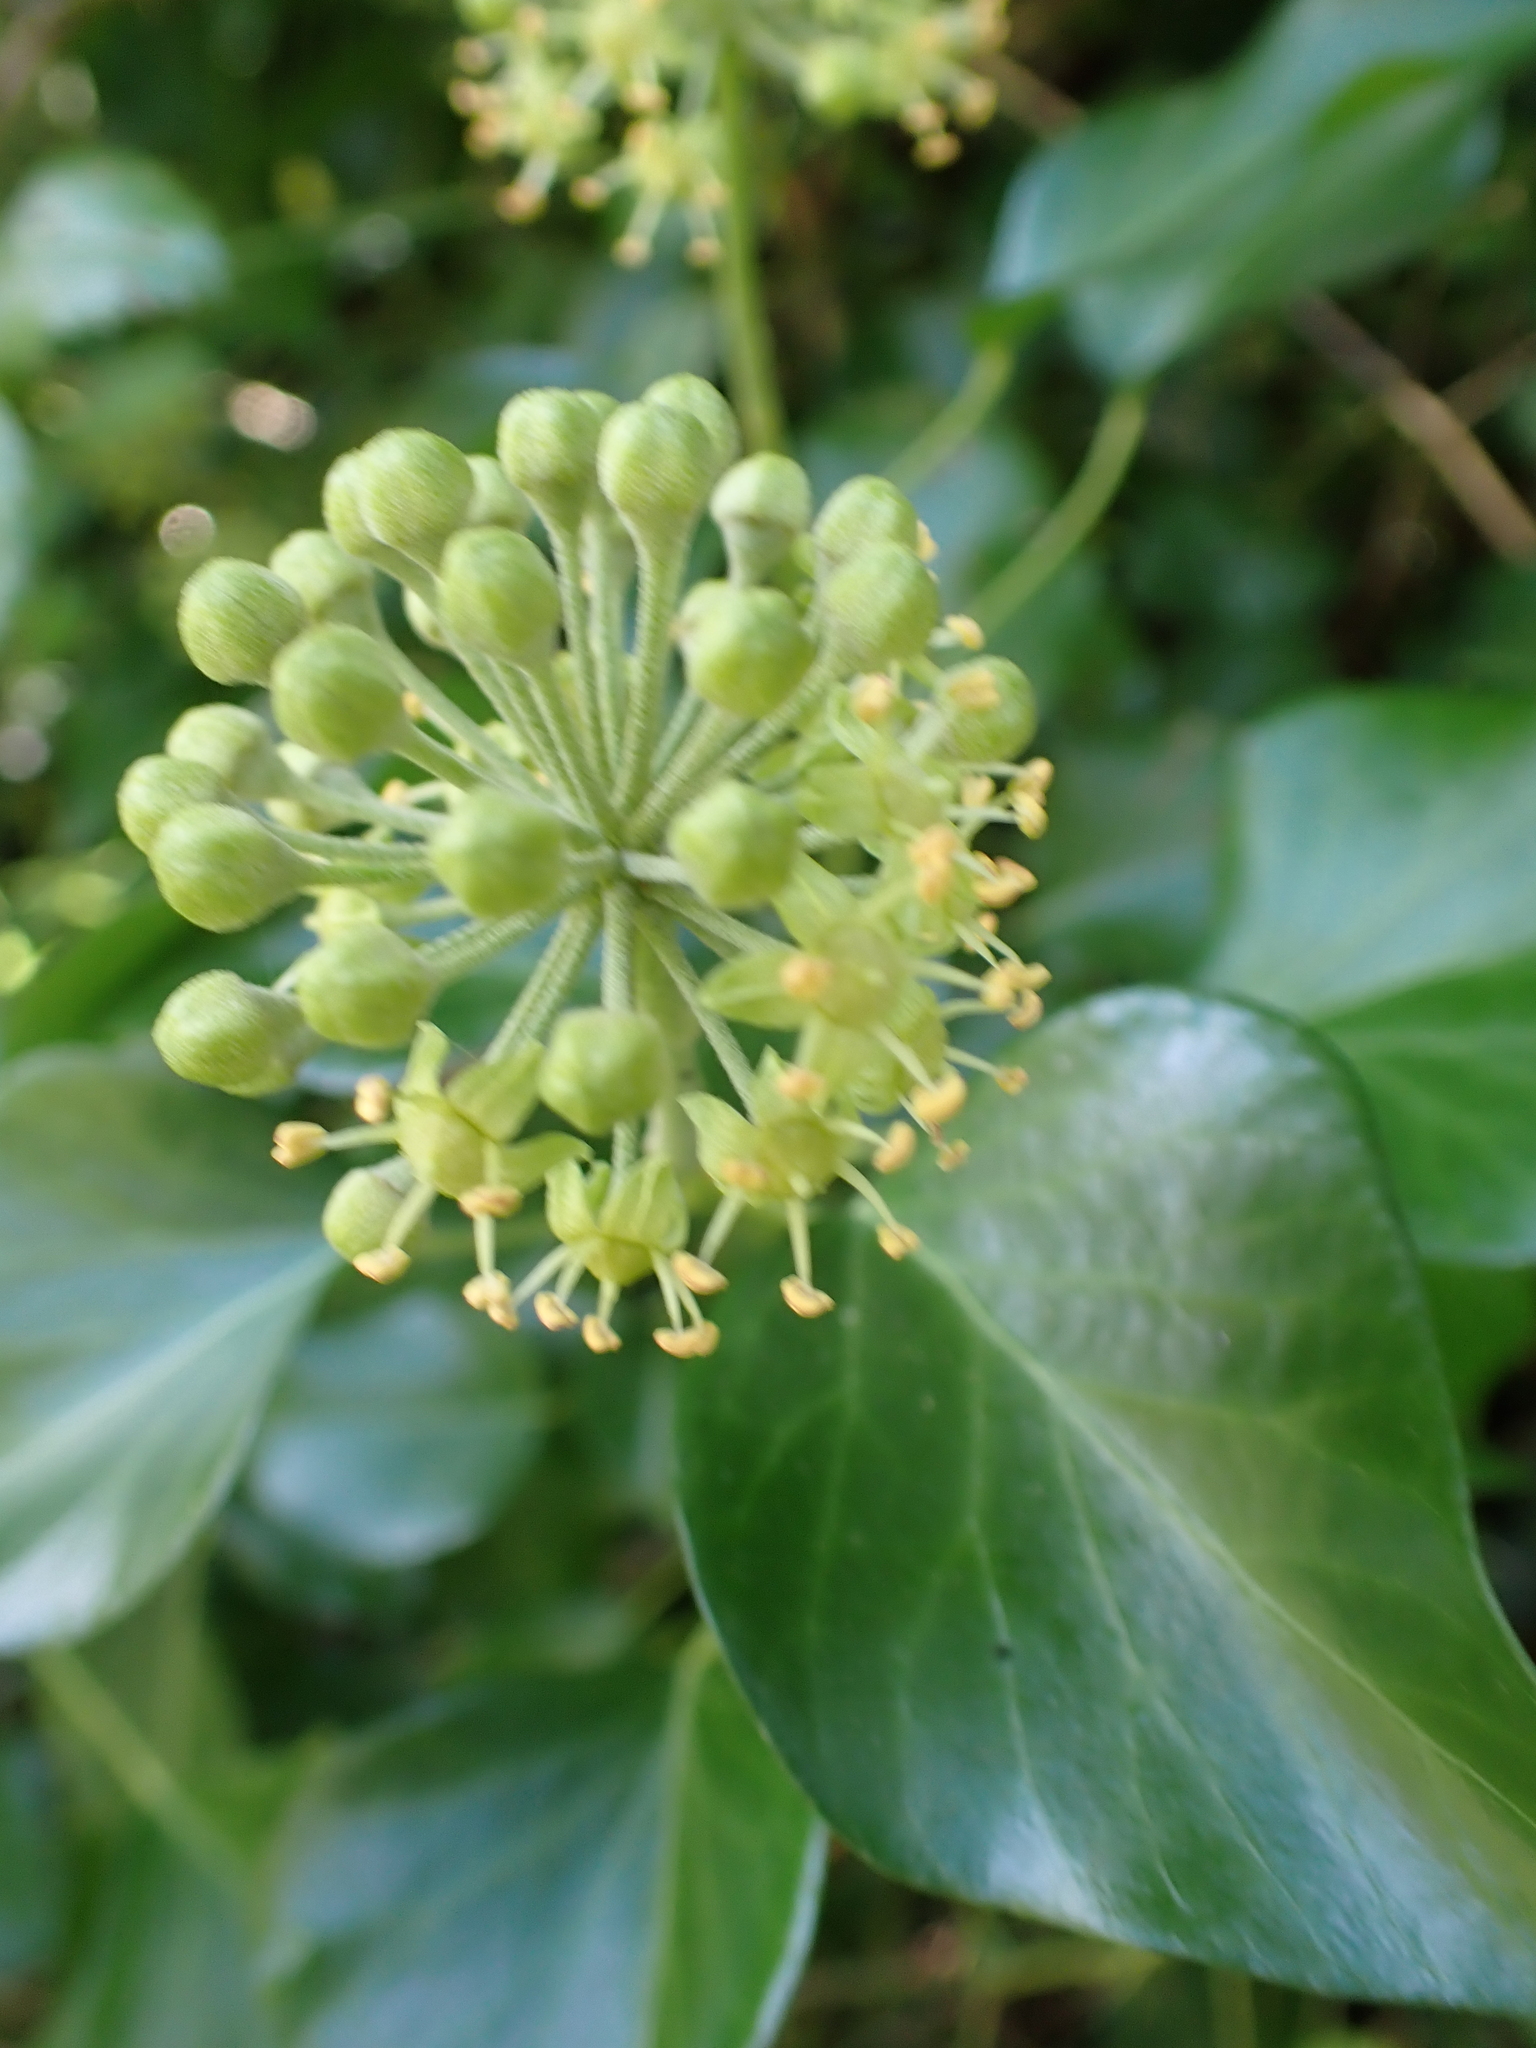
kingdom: Plantae
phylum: Tracheophyta
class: Magnoliopsida
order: Apiales
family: Araliaceae
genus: Hedera
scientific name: Hedera helix
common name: Ivy
